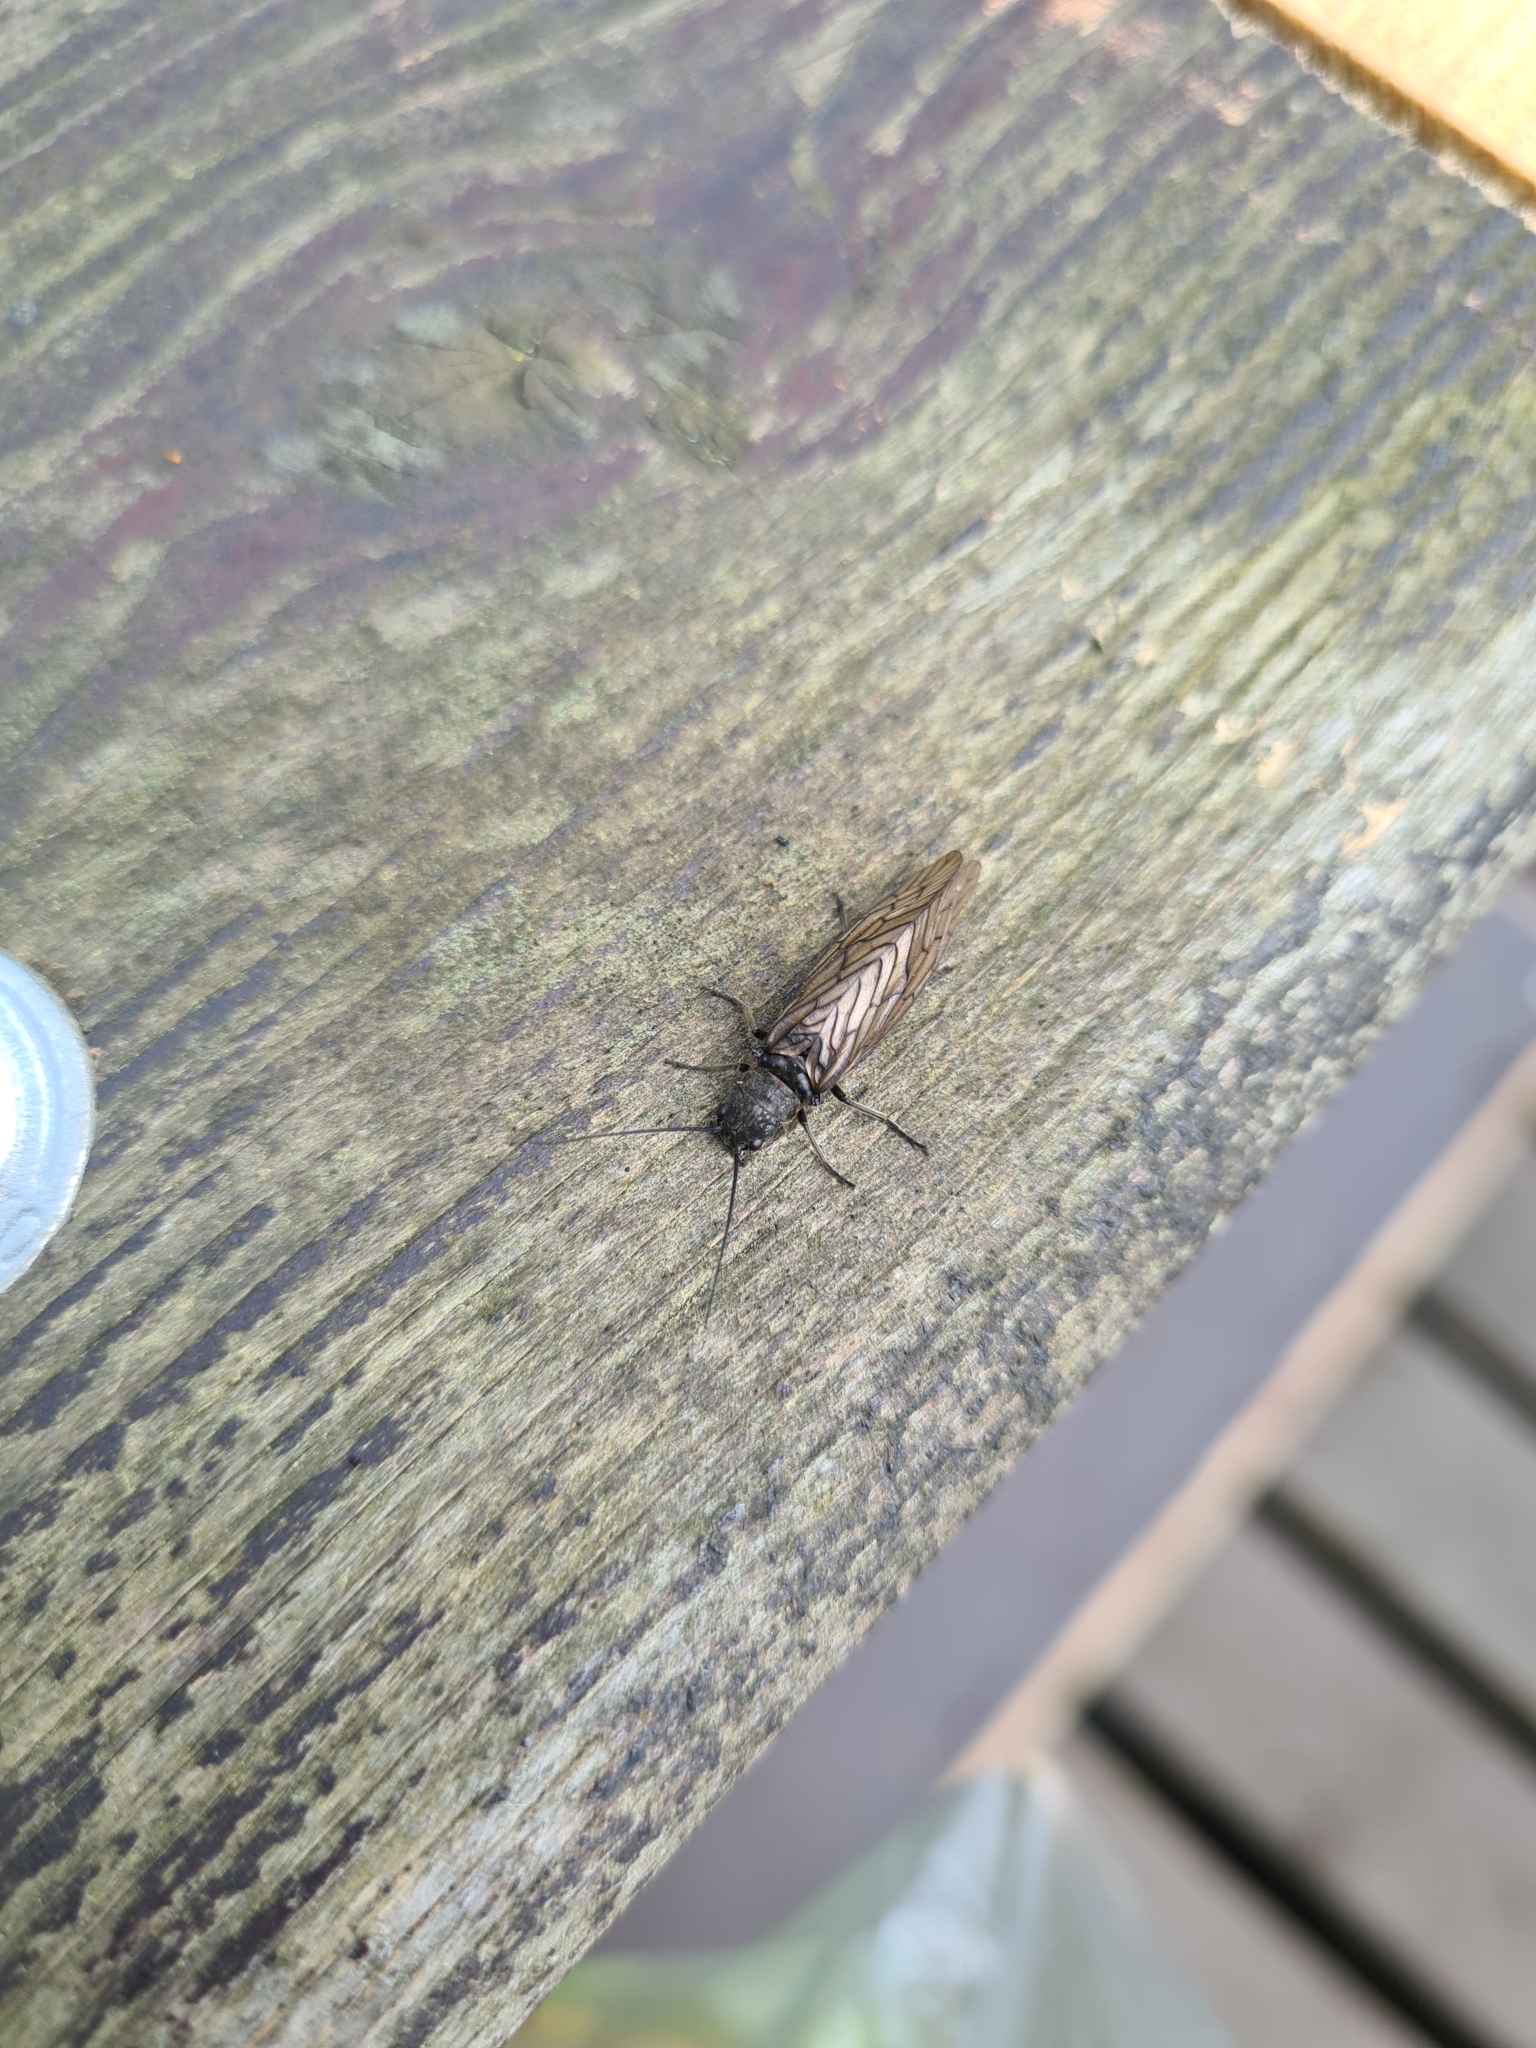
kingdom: Animalia
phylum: Arthropoda
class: Insecta
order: Megaloptera
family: Sialidae
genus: Sialis
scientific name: Sialis
